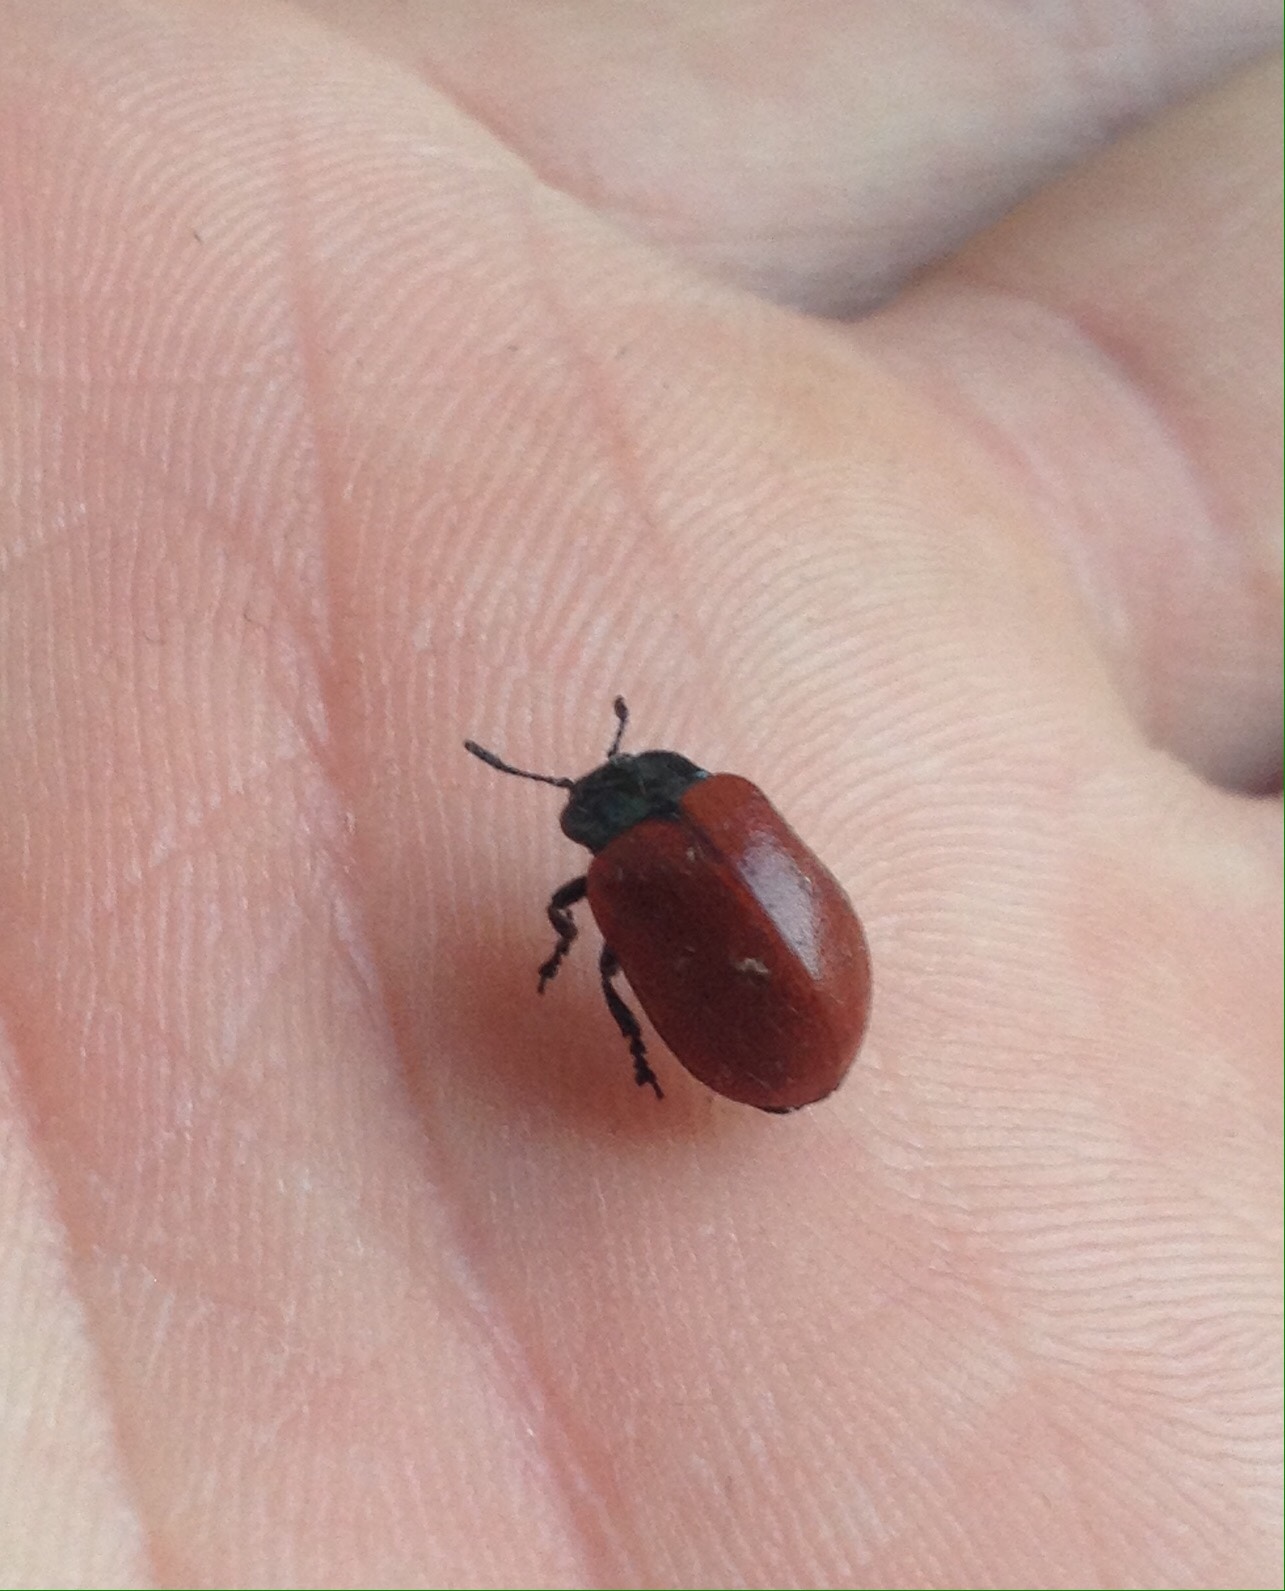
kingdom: Animalia
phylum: Arthropoda
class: Insecta
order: Coleoptera
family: Chrysomelidae
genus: Chrysomela
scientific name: Chrysomela tremula
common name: Leaf beetle
